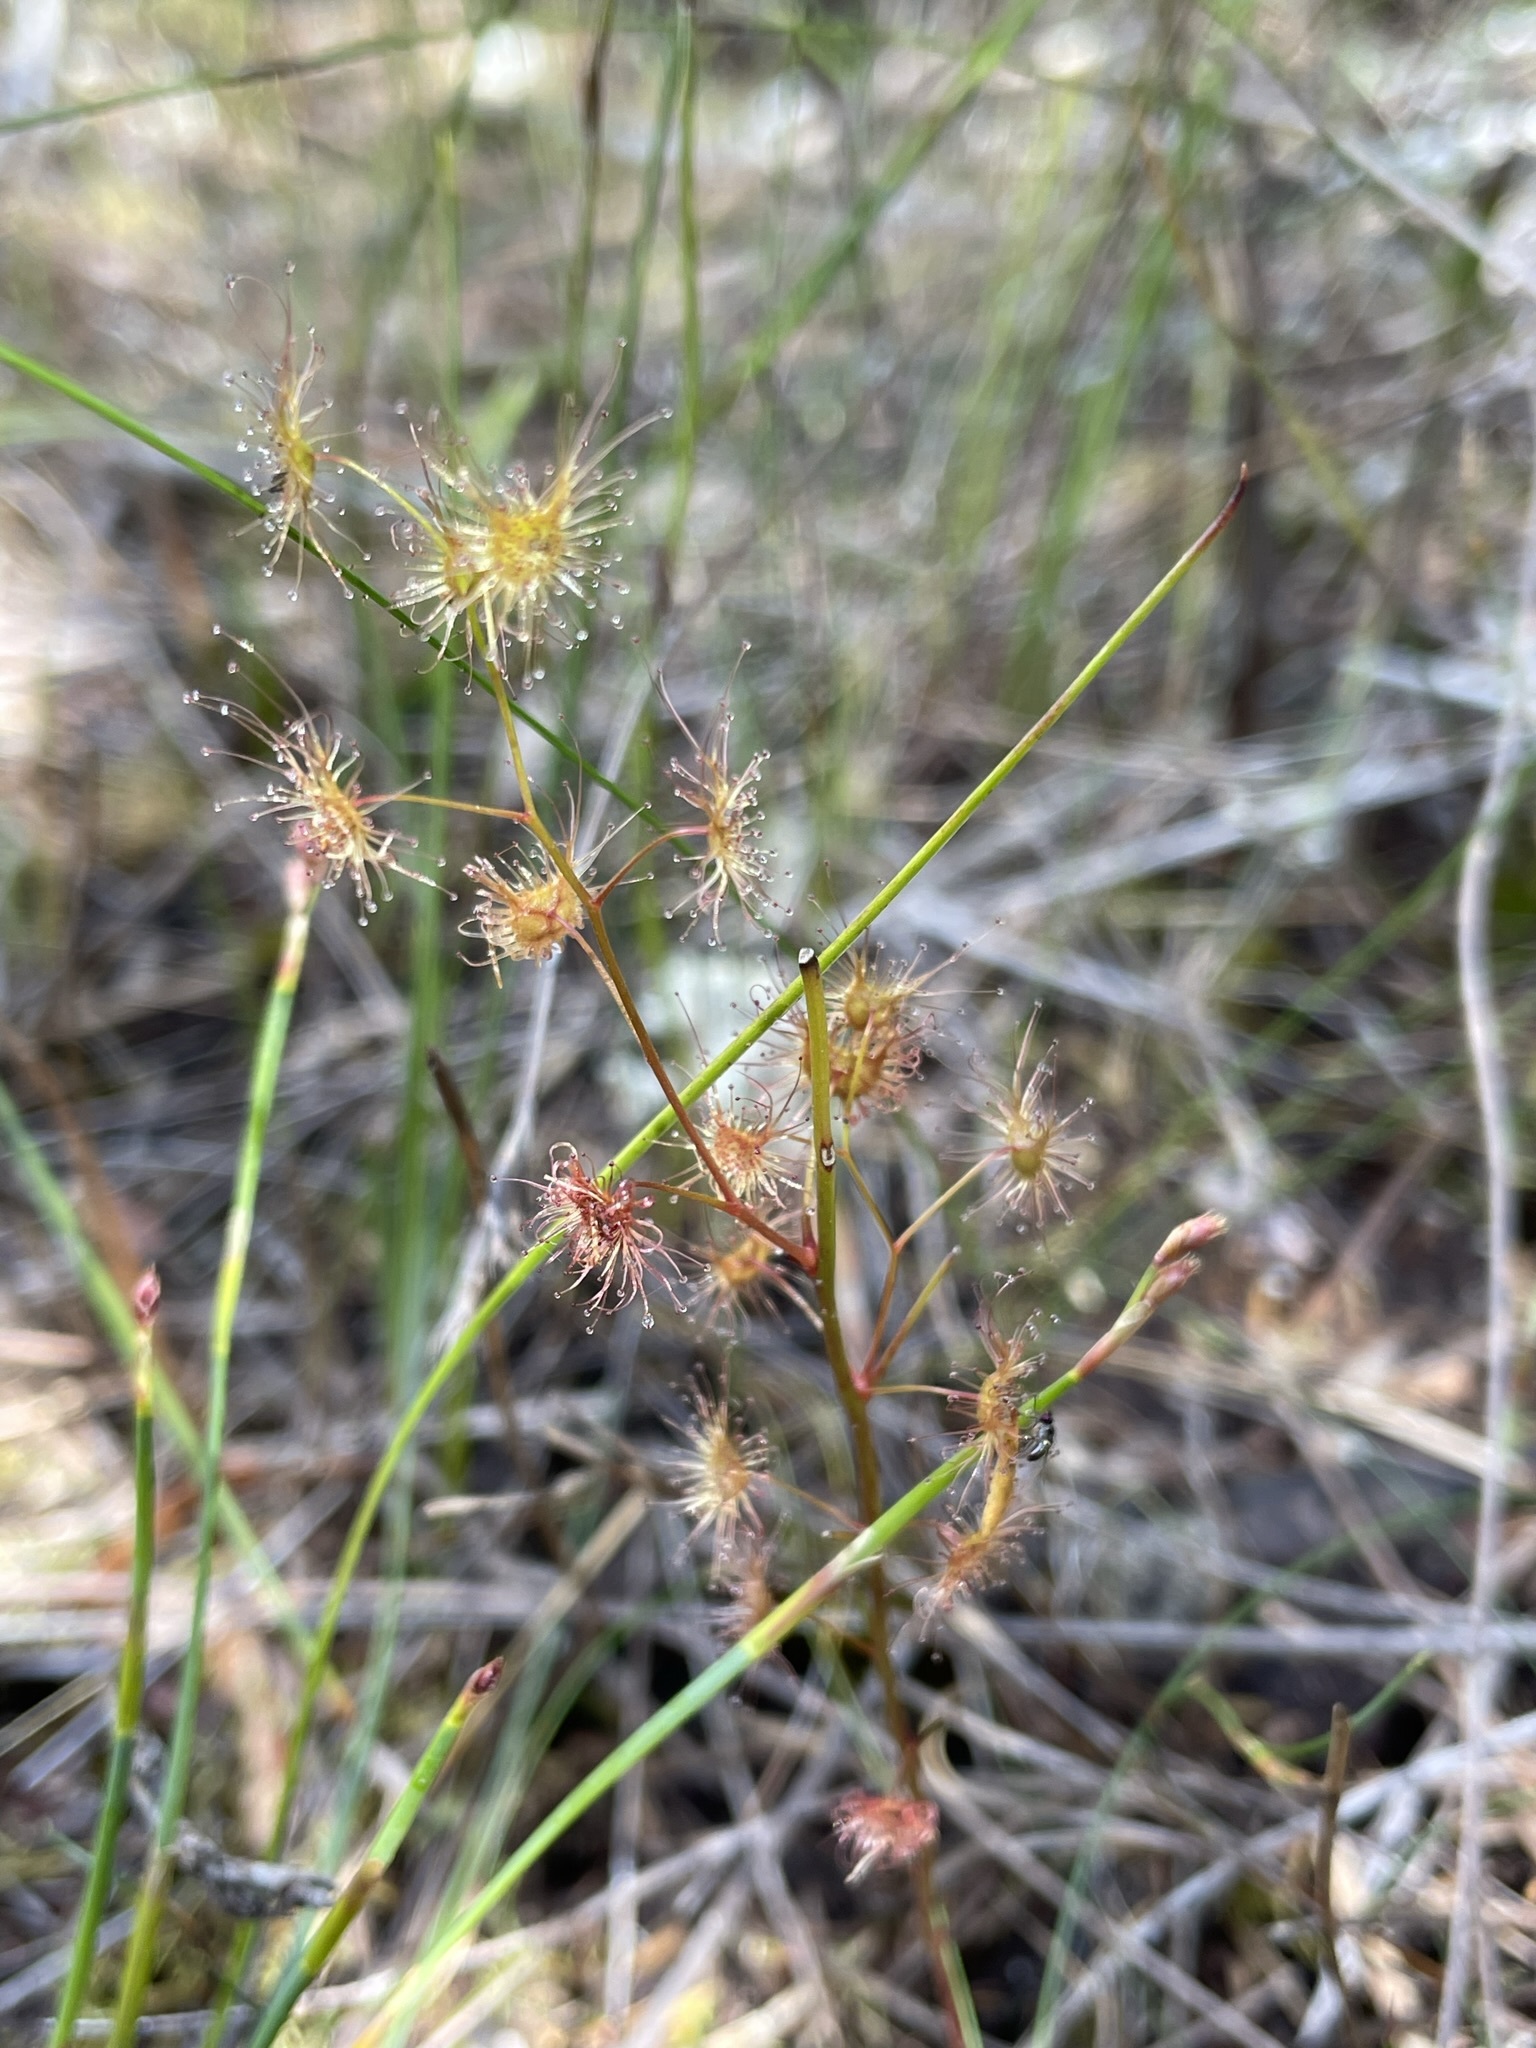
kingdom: Plantae
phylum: Tracheophyta
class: Magnoliopsida
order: Caryophyllales
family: Droseraceae
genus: Drosera
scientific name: Drosera peltata
